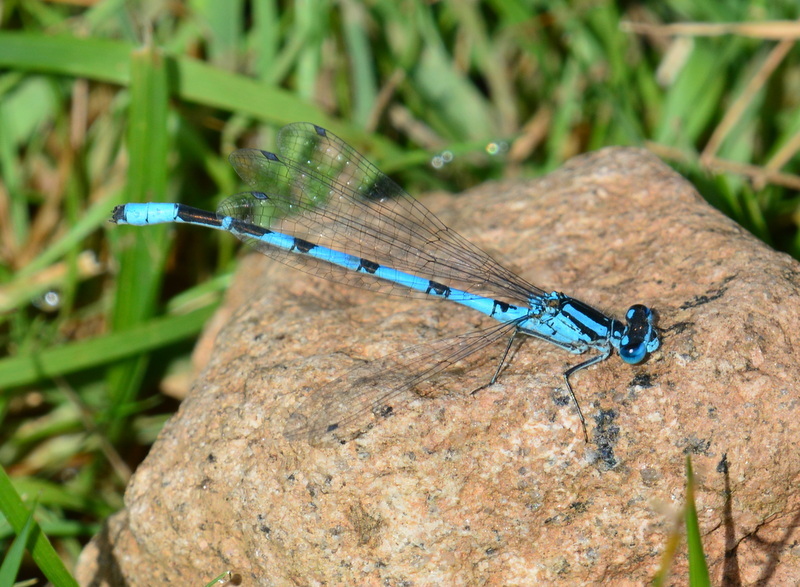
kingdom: Animalia
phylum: Arthropoda
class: Insecta
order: Odonata
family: Coenagrionidae
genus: Enallagma
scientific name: Enallagma cyathigerum
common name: Common blue damselfly
